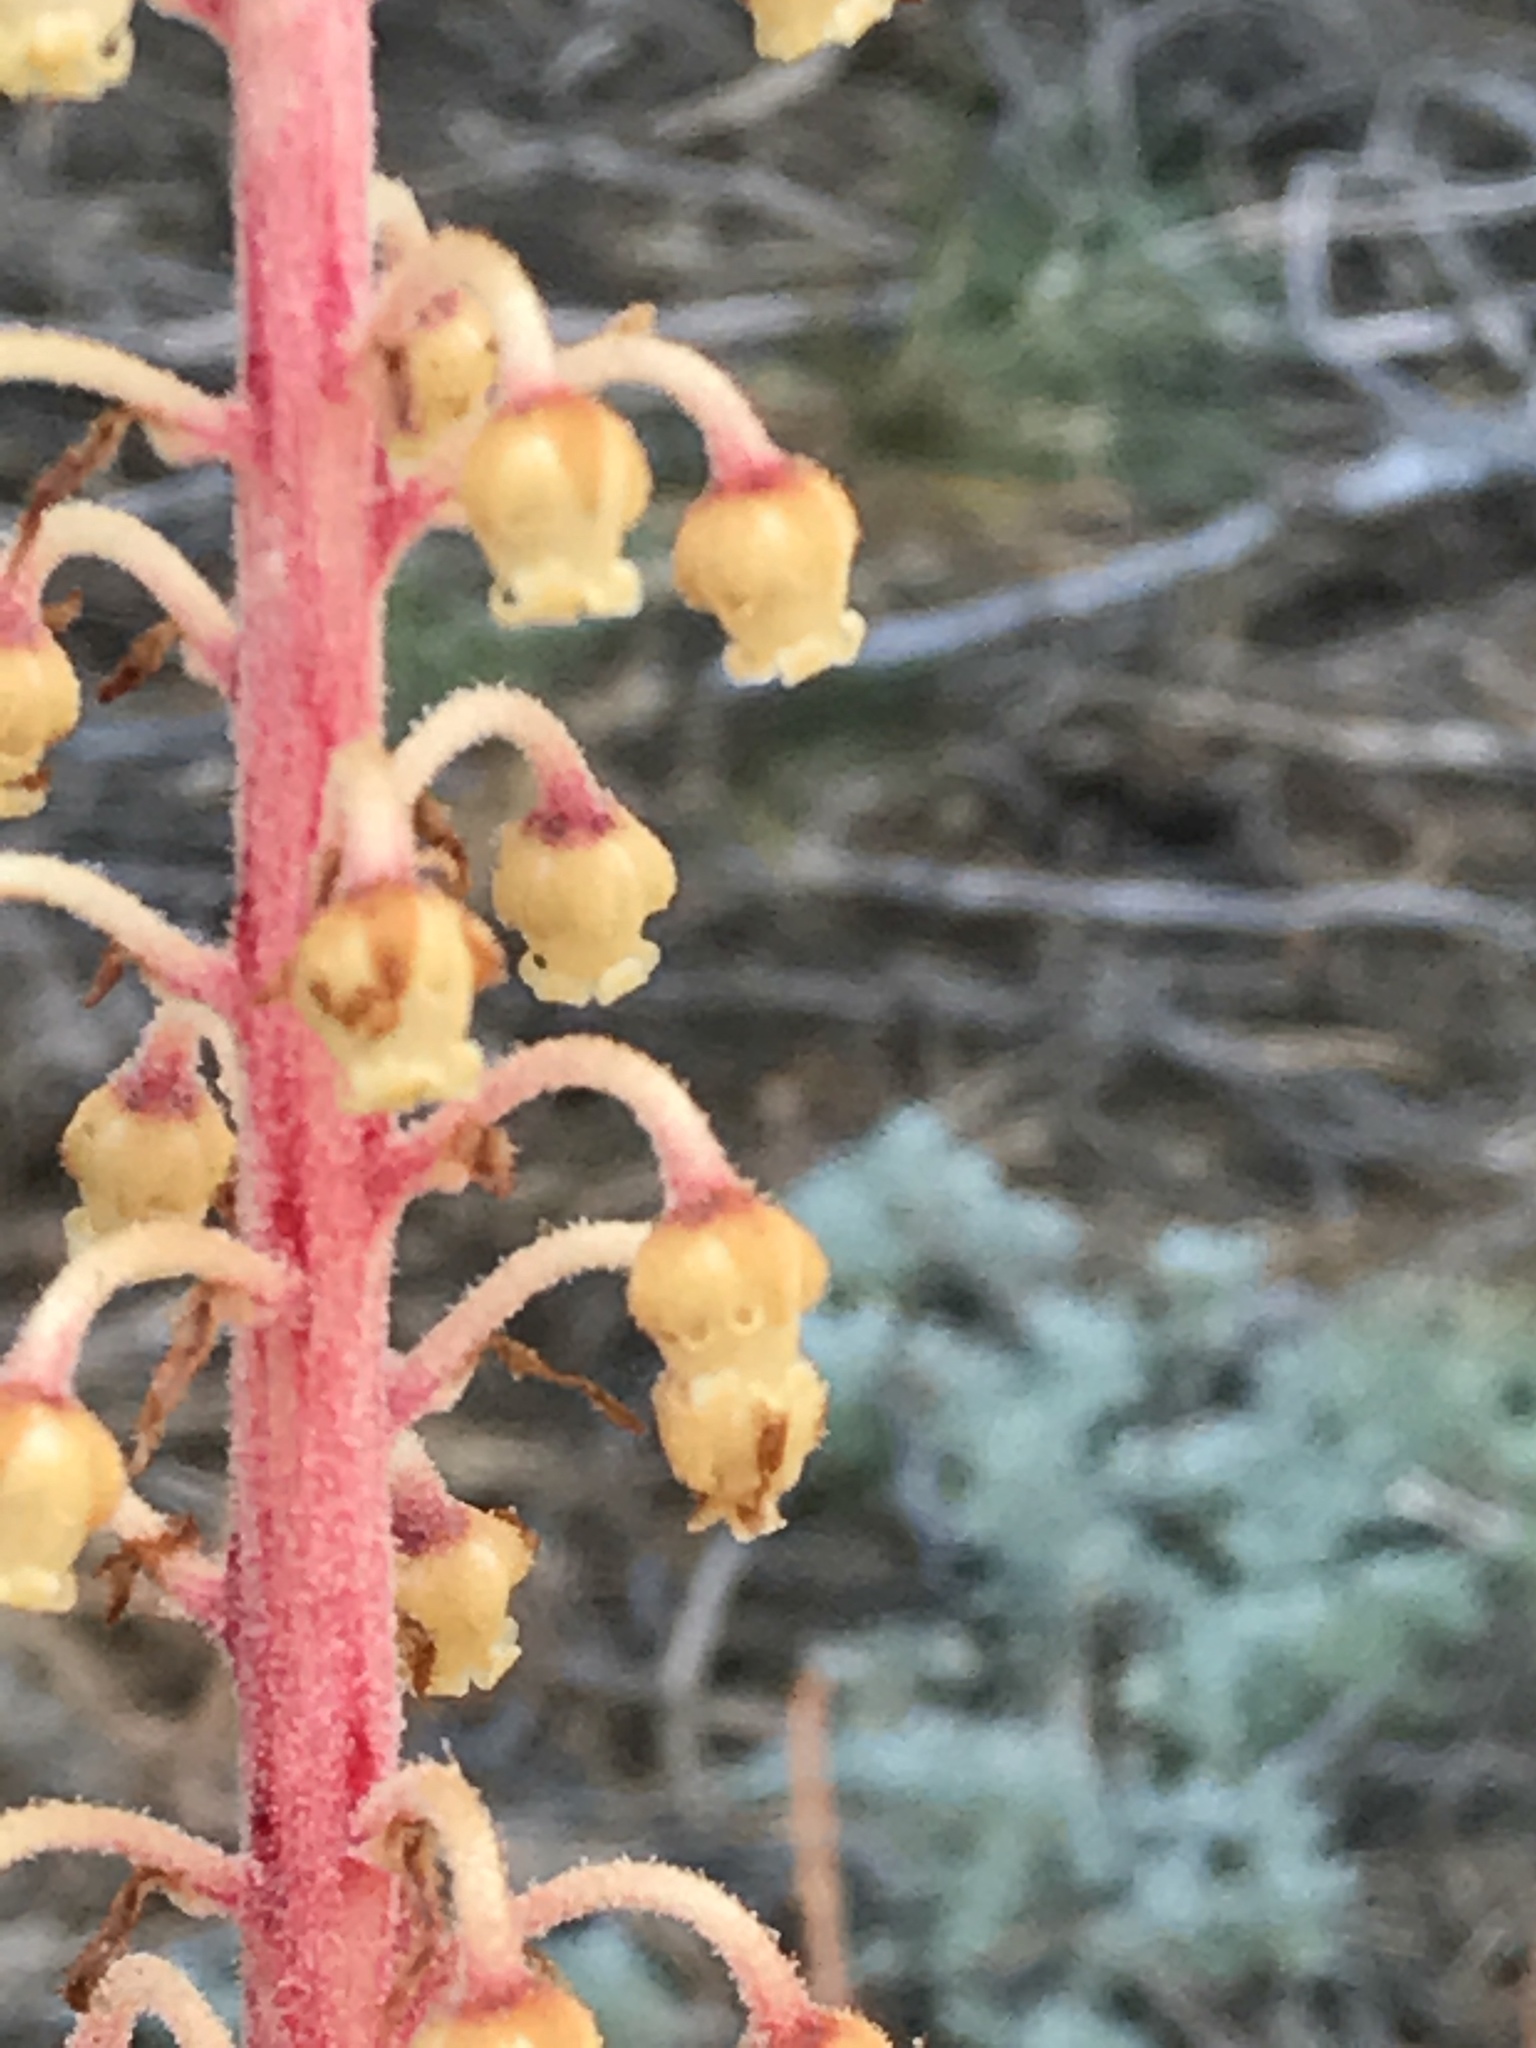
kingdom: Plantae
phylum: Tracheophyta
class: Magnoliopsida
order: Ericales
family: Ericaceae
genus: Pterospora
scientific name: Pterospora andromedea
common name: Giant bird's-nest
